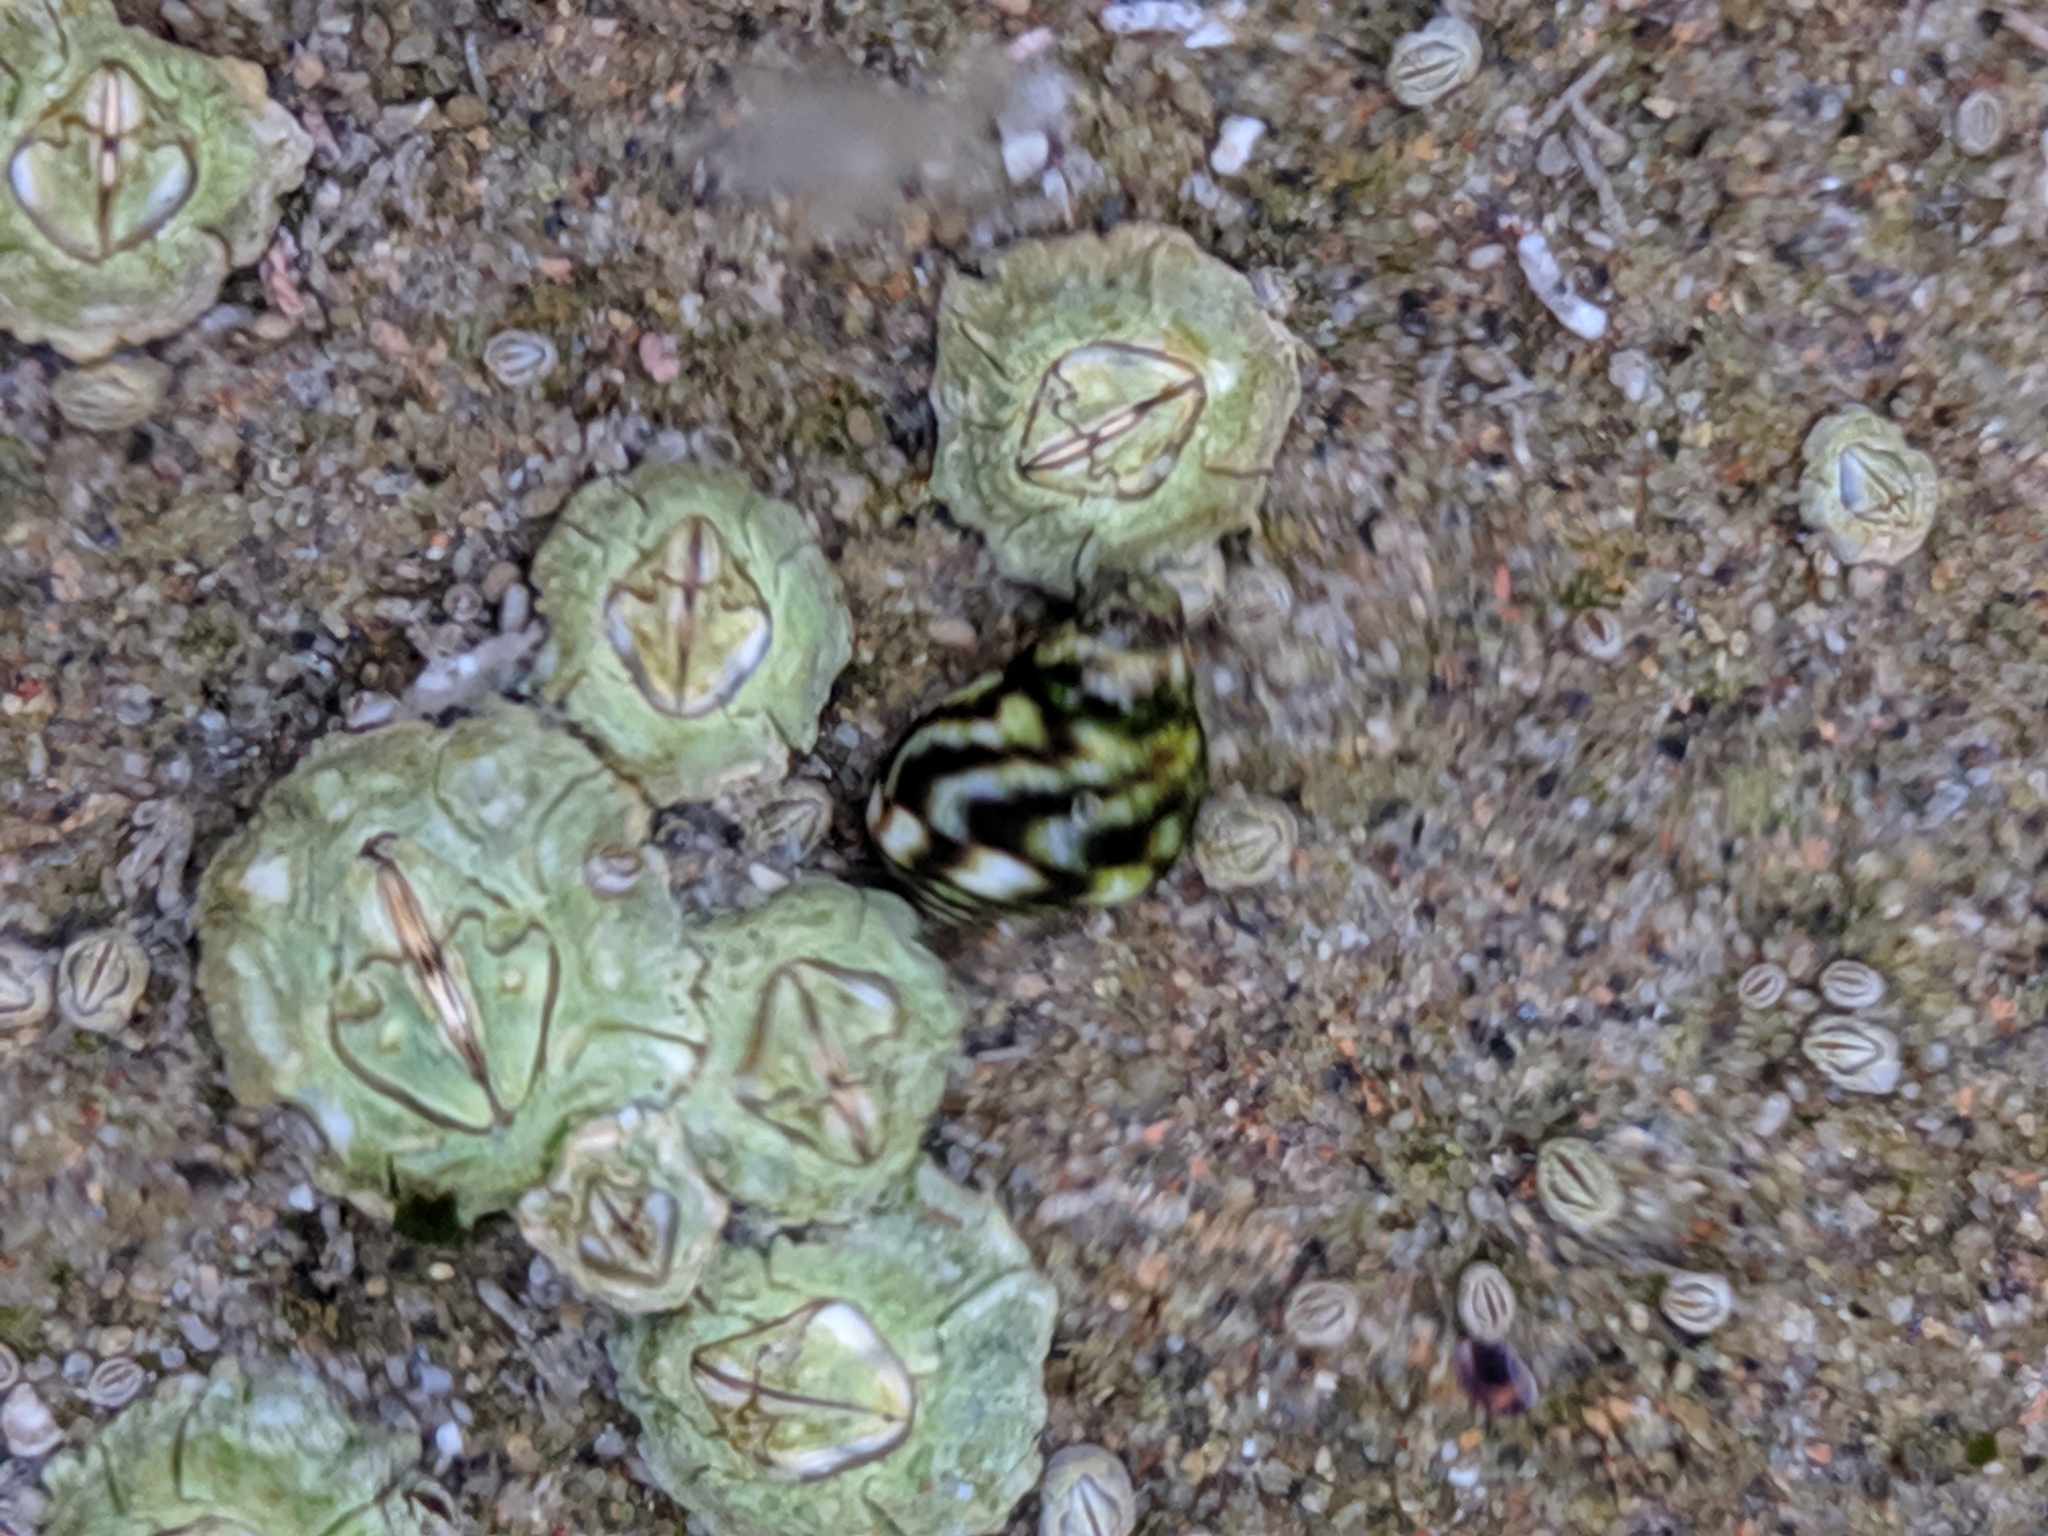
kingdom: Animalia
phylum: Arthropoda
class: Maxillopoda
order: Sessilia
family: Archaeobalanidae
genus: Semibalanus
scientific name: Semibalanus balanoides
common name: Acorn barnacle
